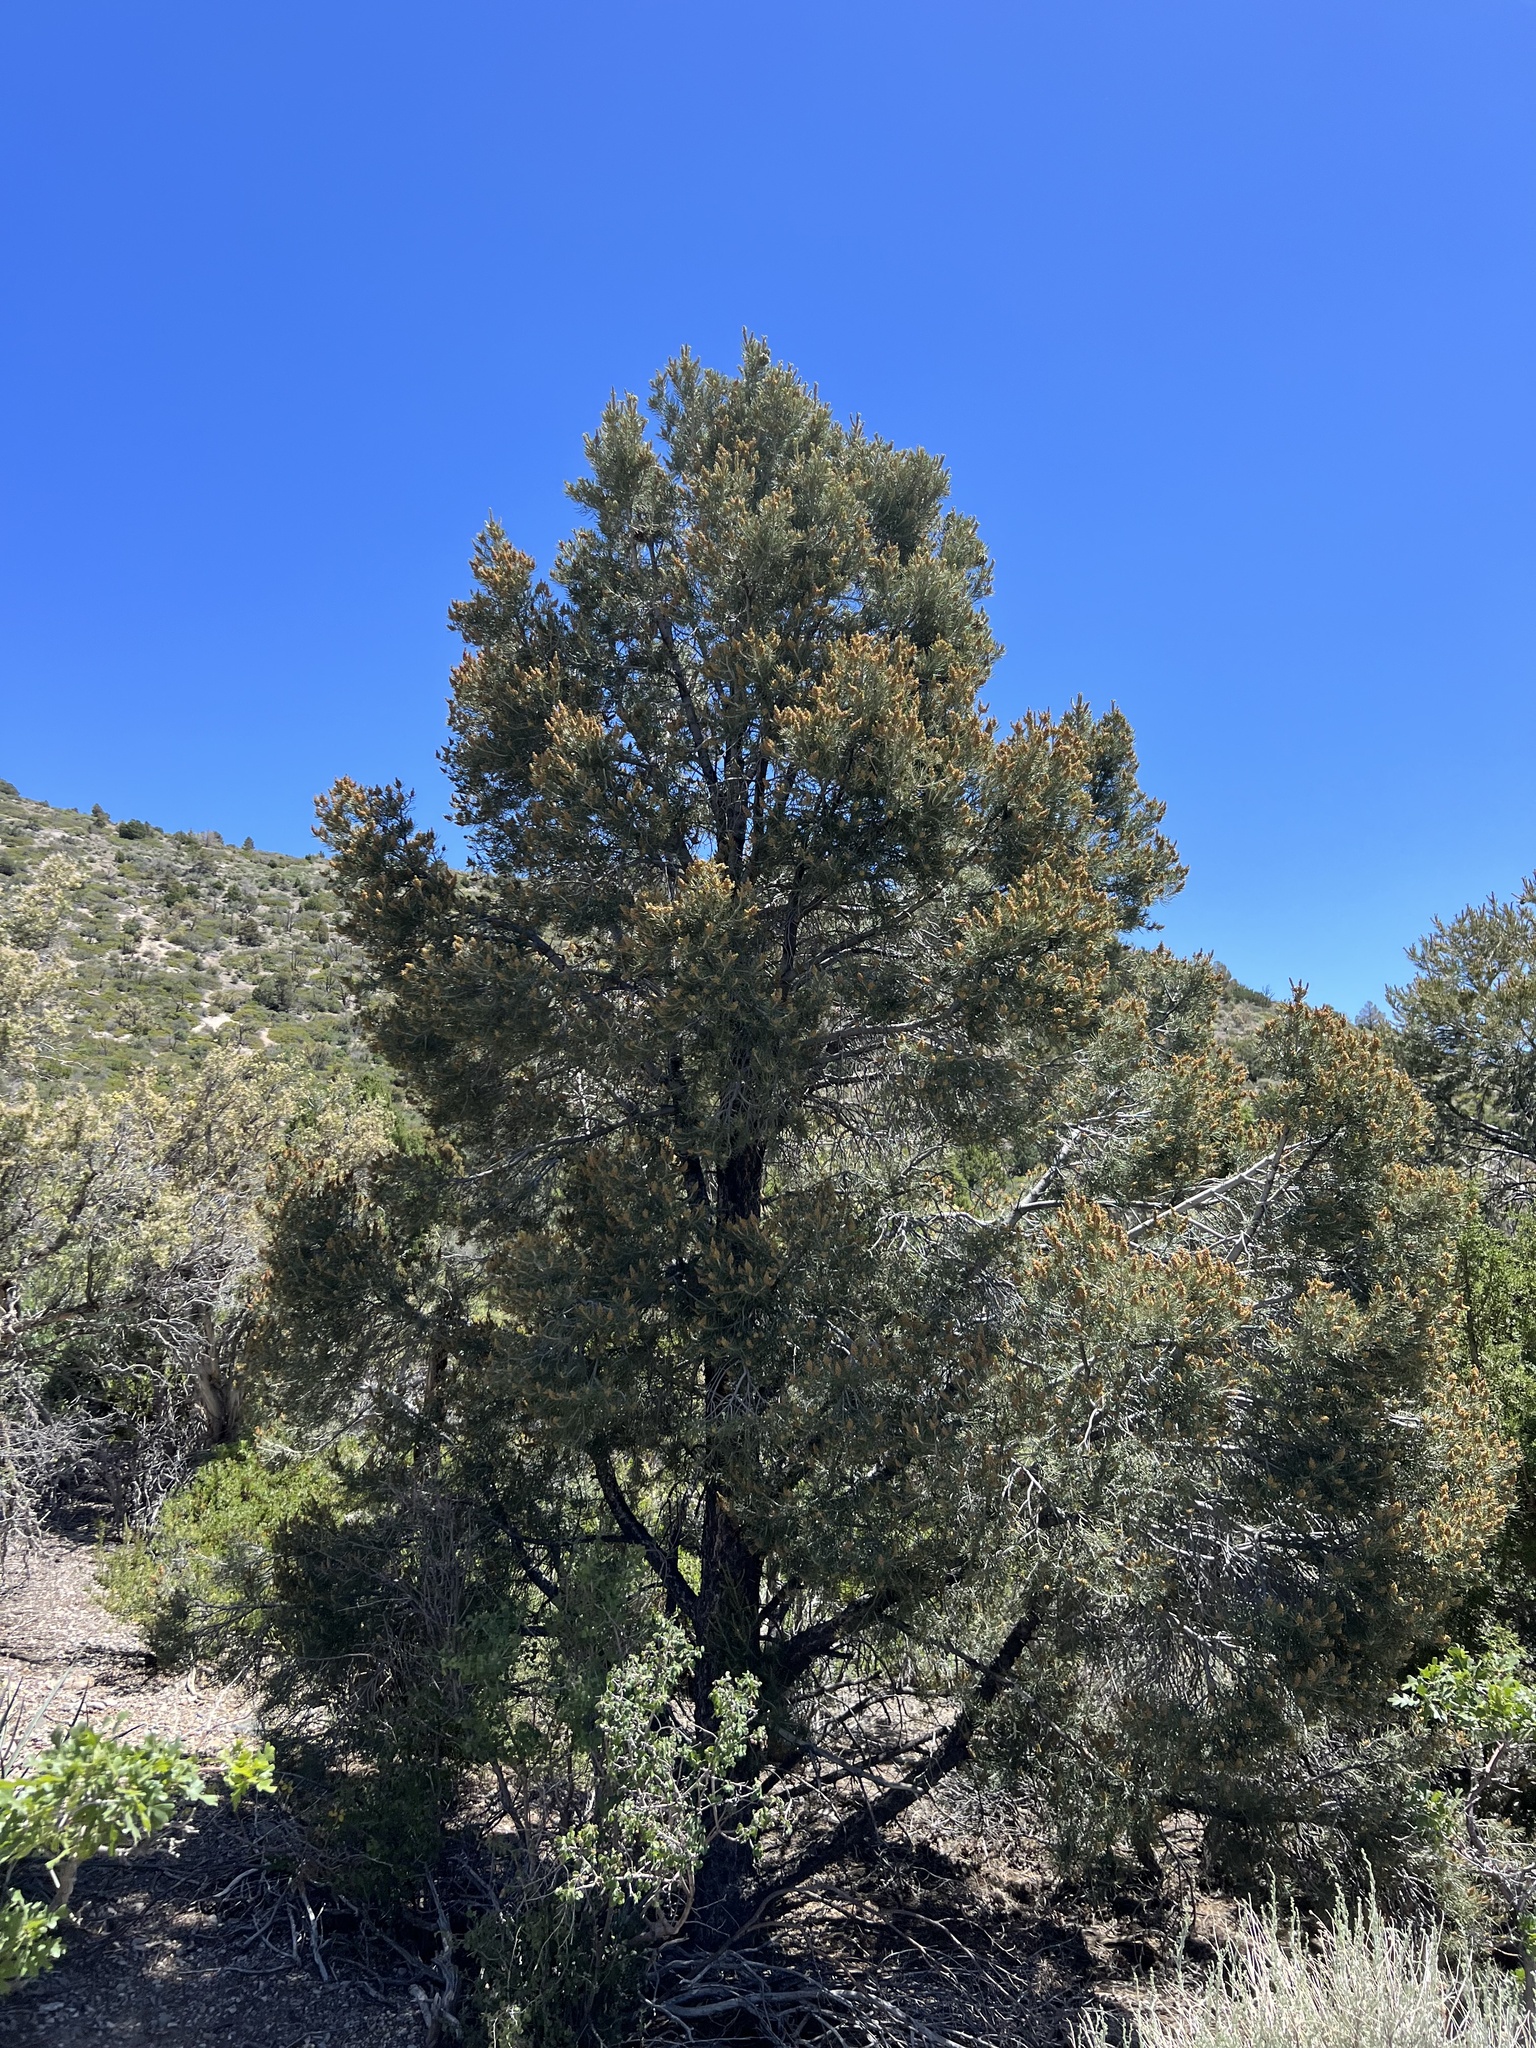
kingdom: Plantae
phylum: Tracheophyta
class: Pinopsida
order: Pinales
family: Pinaceae
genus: Pinus
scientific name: Pinus monophylla
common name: One-leaved nut pine
